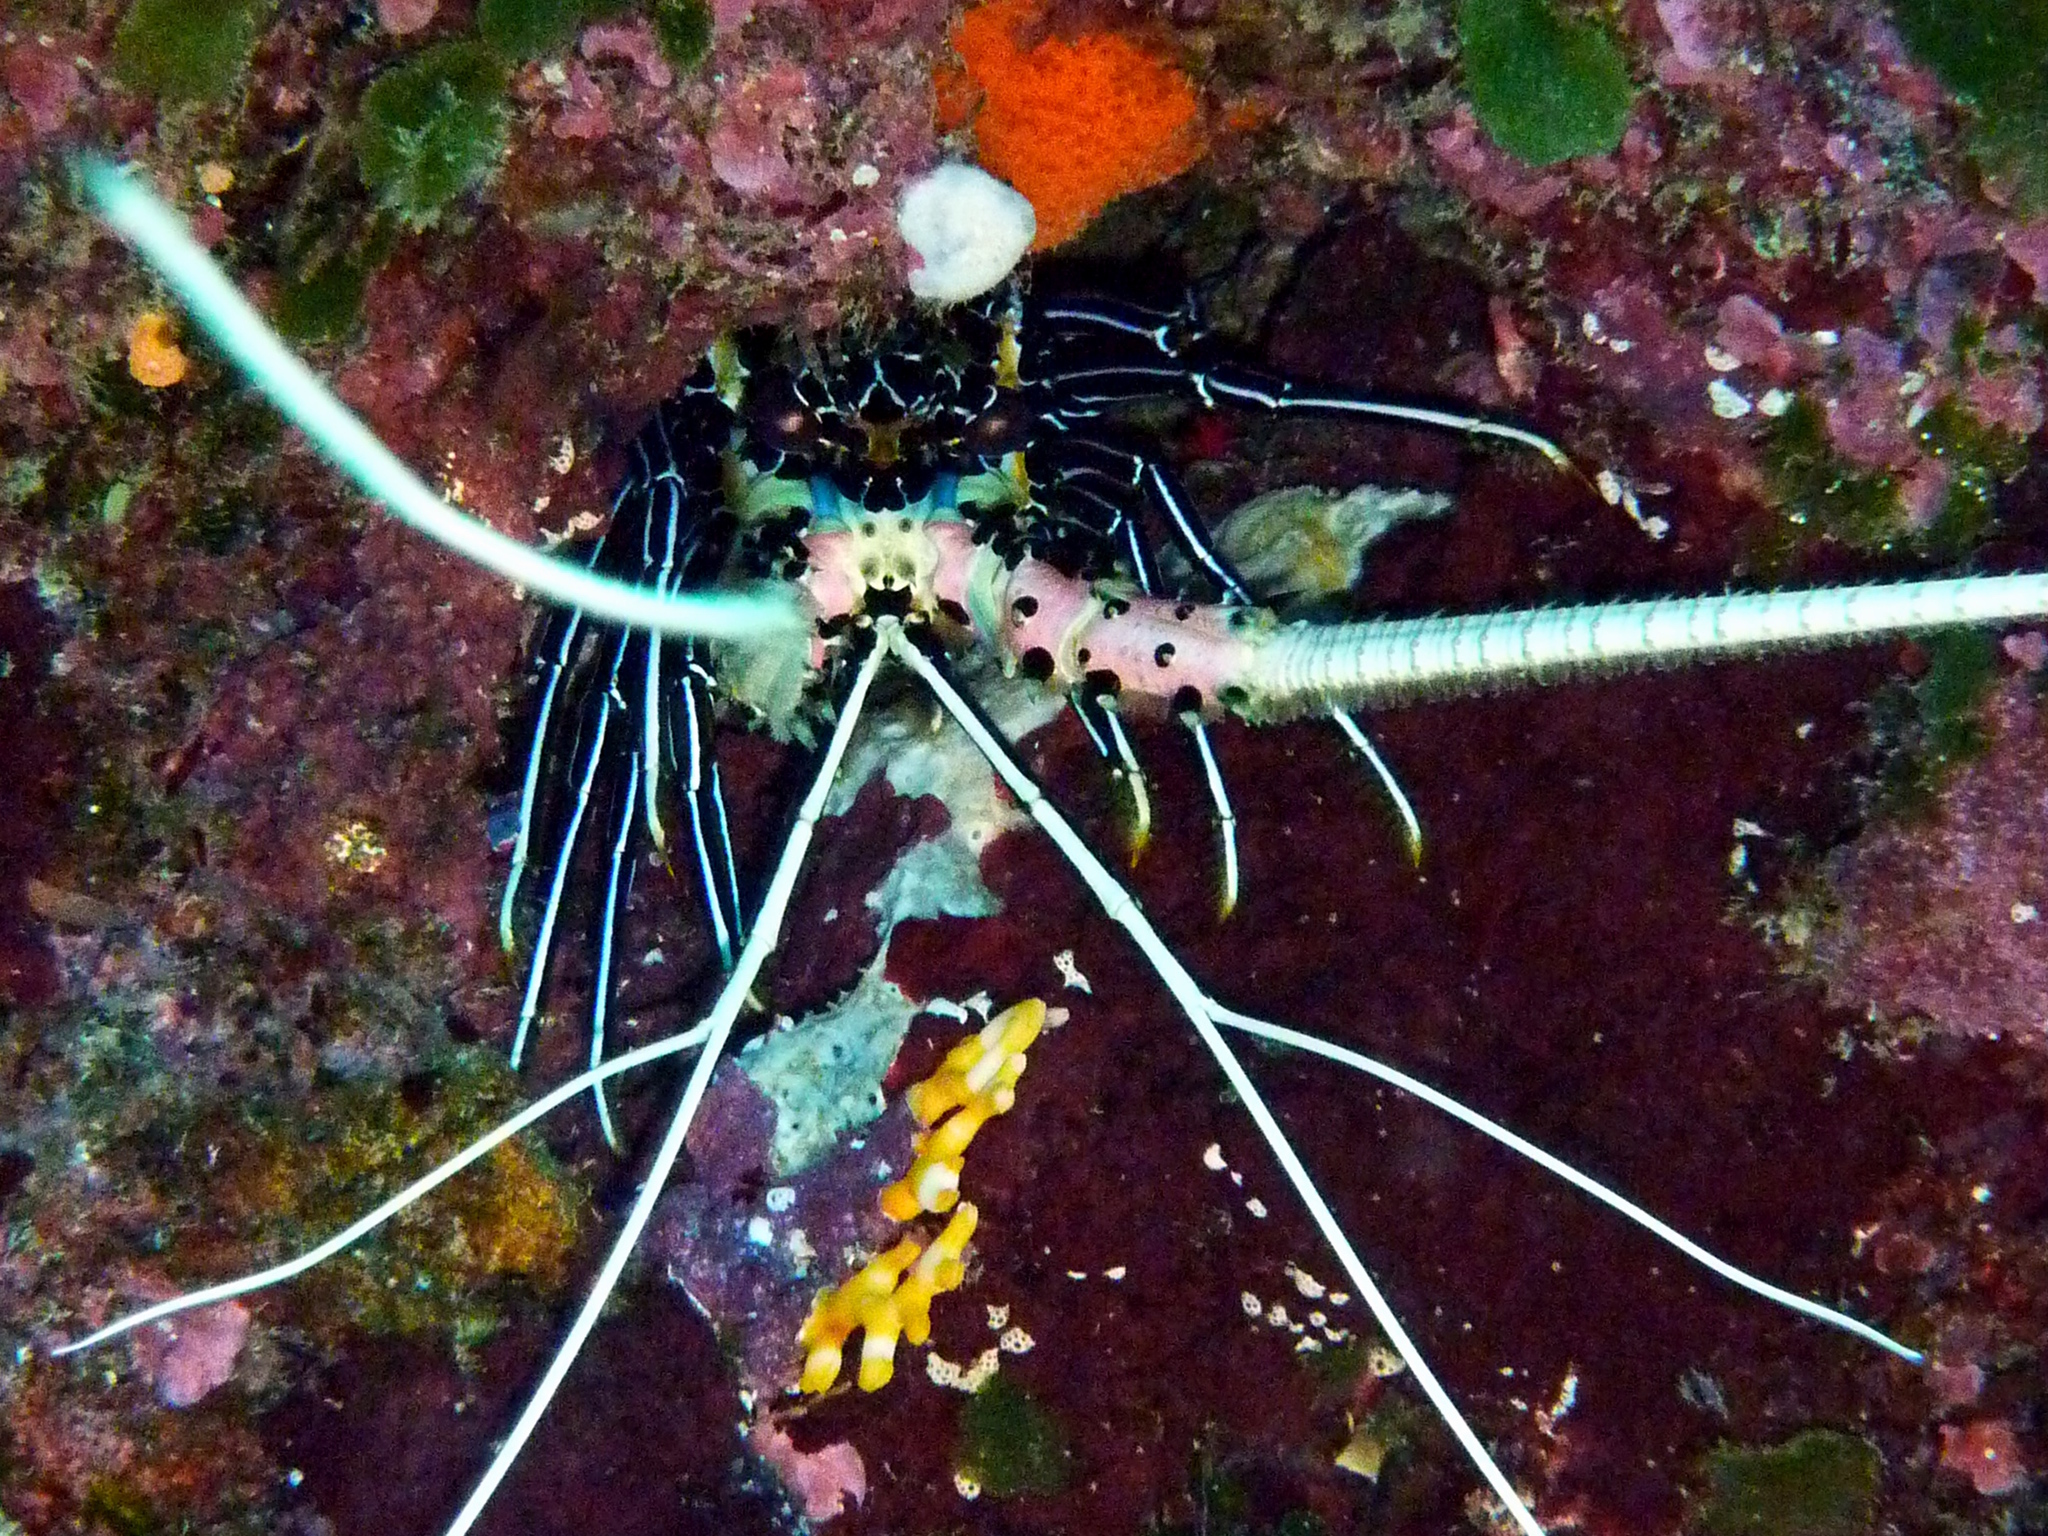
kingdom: Animalia
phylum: Arthropoda
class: Malacostraca
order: Decapoda
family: Palinuridae
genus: Panulirus
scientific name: Panulirus versicolor
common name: Painted spiny lobster
